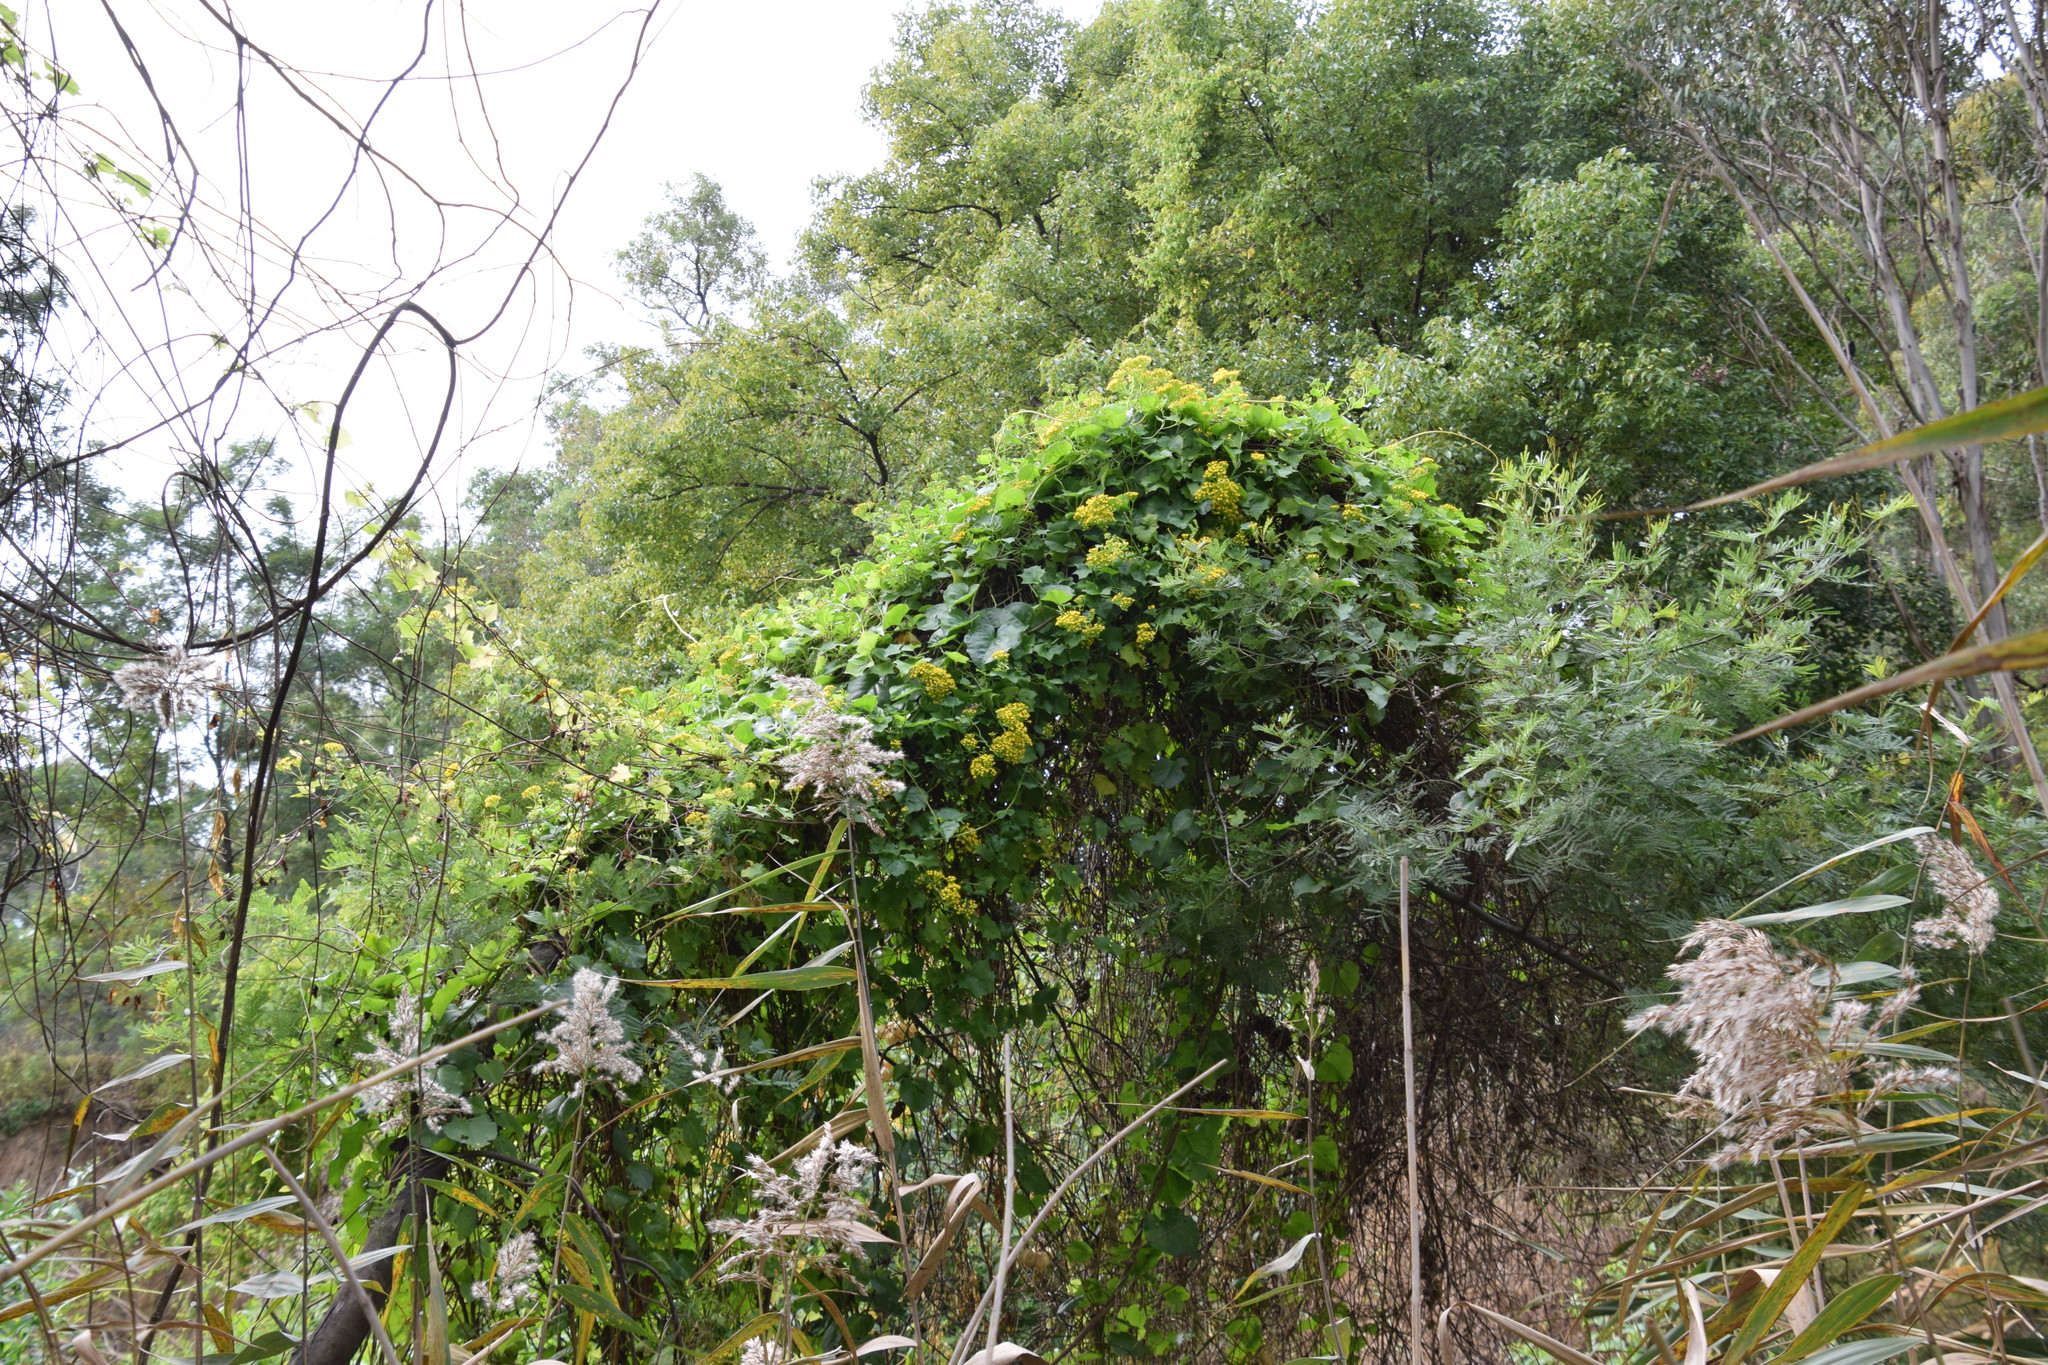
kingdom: Plantae
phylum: Tracheophyta
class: Magnoliopsida
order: Asterales
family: Asteraceae
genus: Delairea
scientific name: Delairea odorata
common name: Cape-ivy
